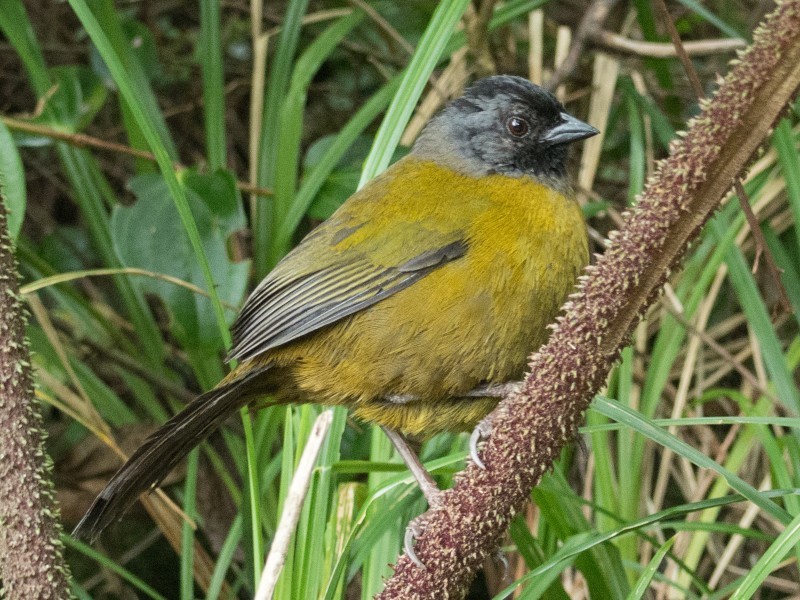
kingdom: Animalia
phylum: Chordata
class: Aves
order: Passeriformes
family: Passerellidae
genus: Pezopetes
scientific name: Pezopetes capitalis
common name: Large-footed finch
